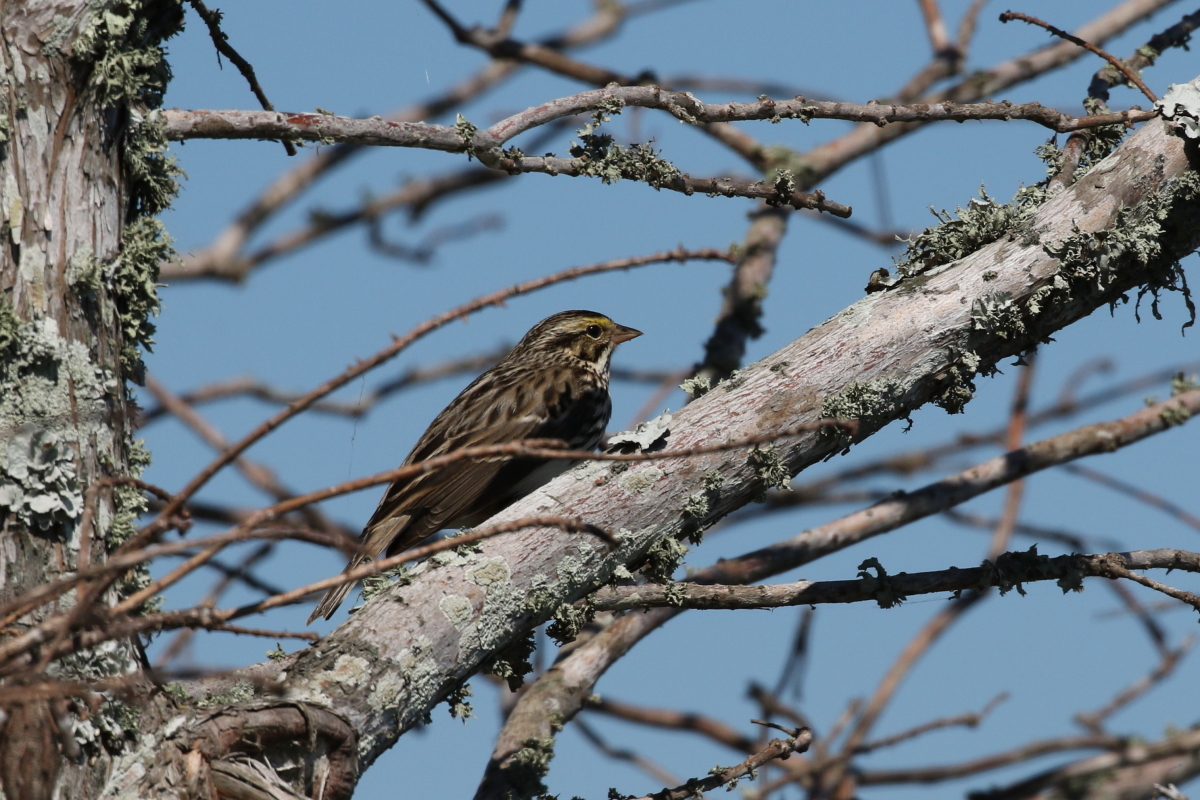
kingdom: Animalia
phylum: Chordata
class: Aves
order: Passeriformes
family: Passerellidae
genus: Passerculus
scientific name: Passerculus sandwichensis
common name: Savannah sparrow
